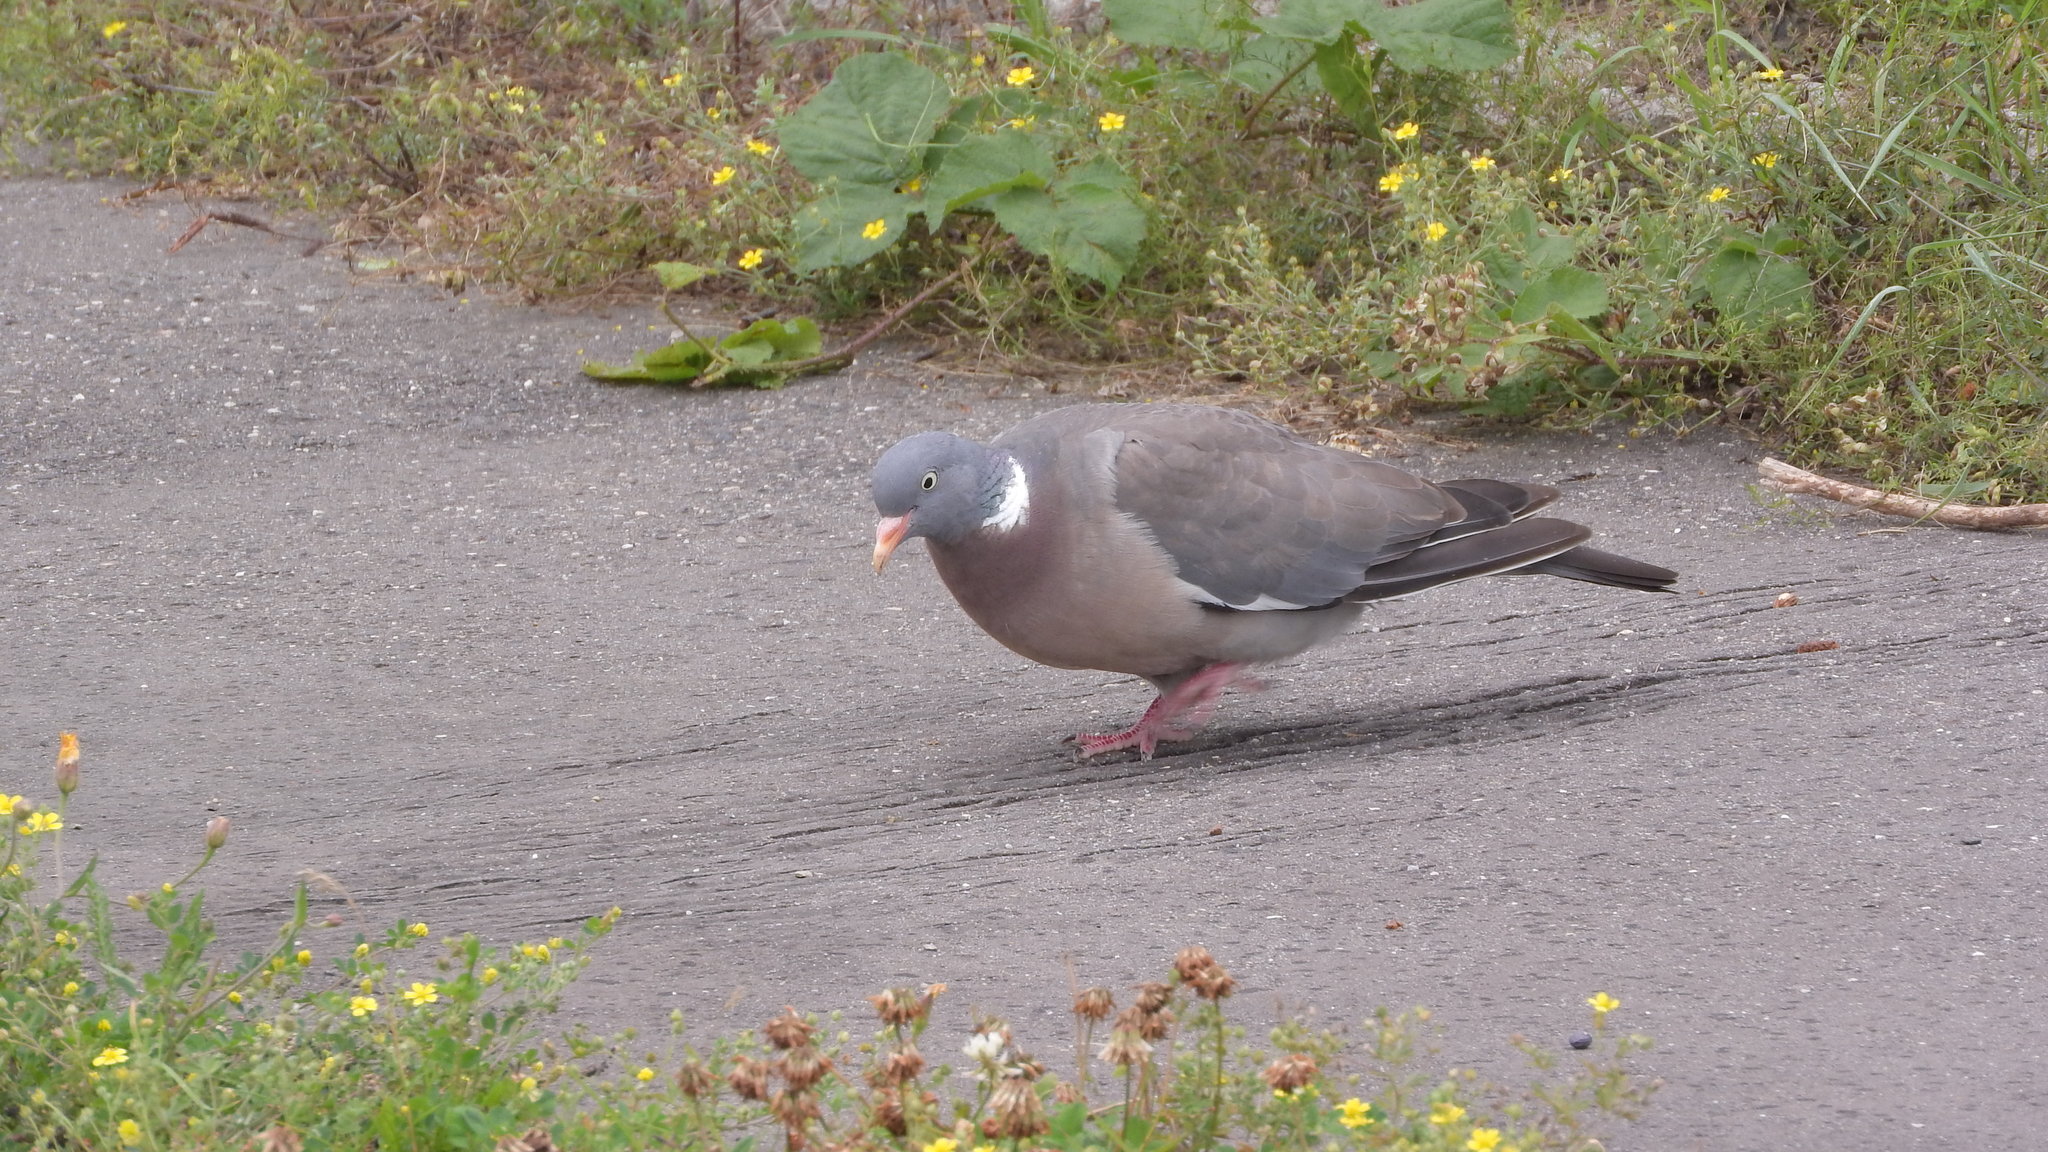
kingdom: Animalia
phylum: Chordata
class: Aves
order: Columbiformes
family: Columbidae
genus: Columba
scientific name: Columba palumbus
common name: Common wood pigeon
